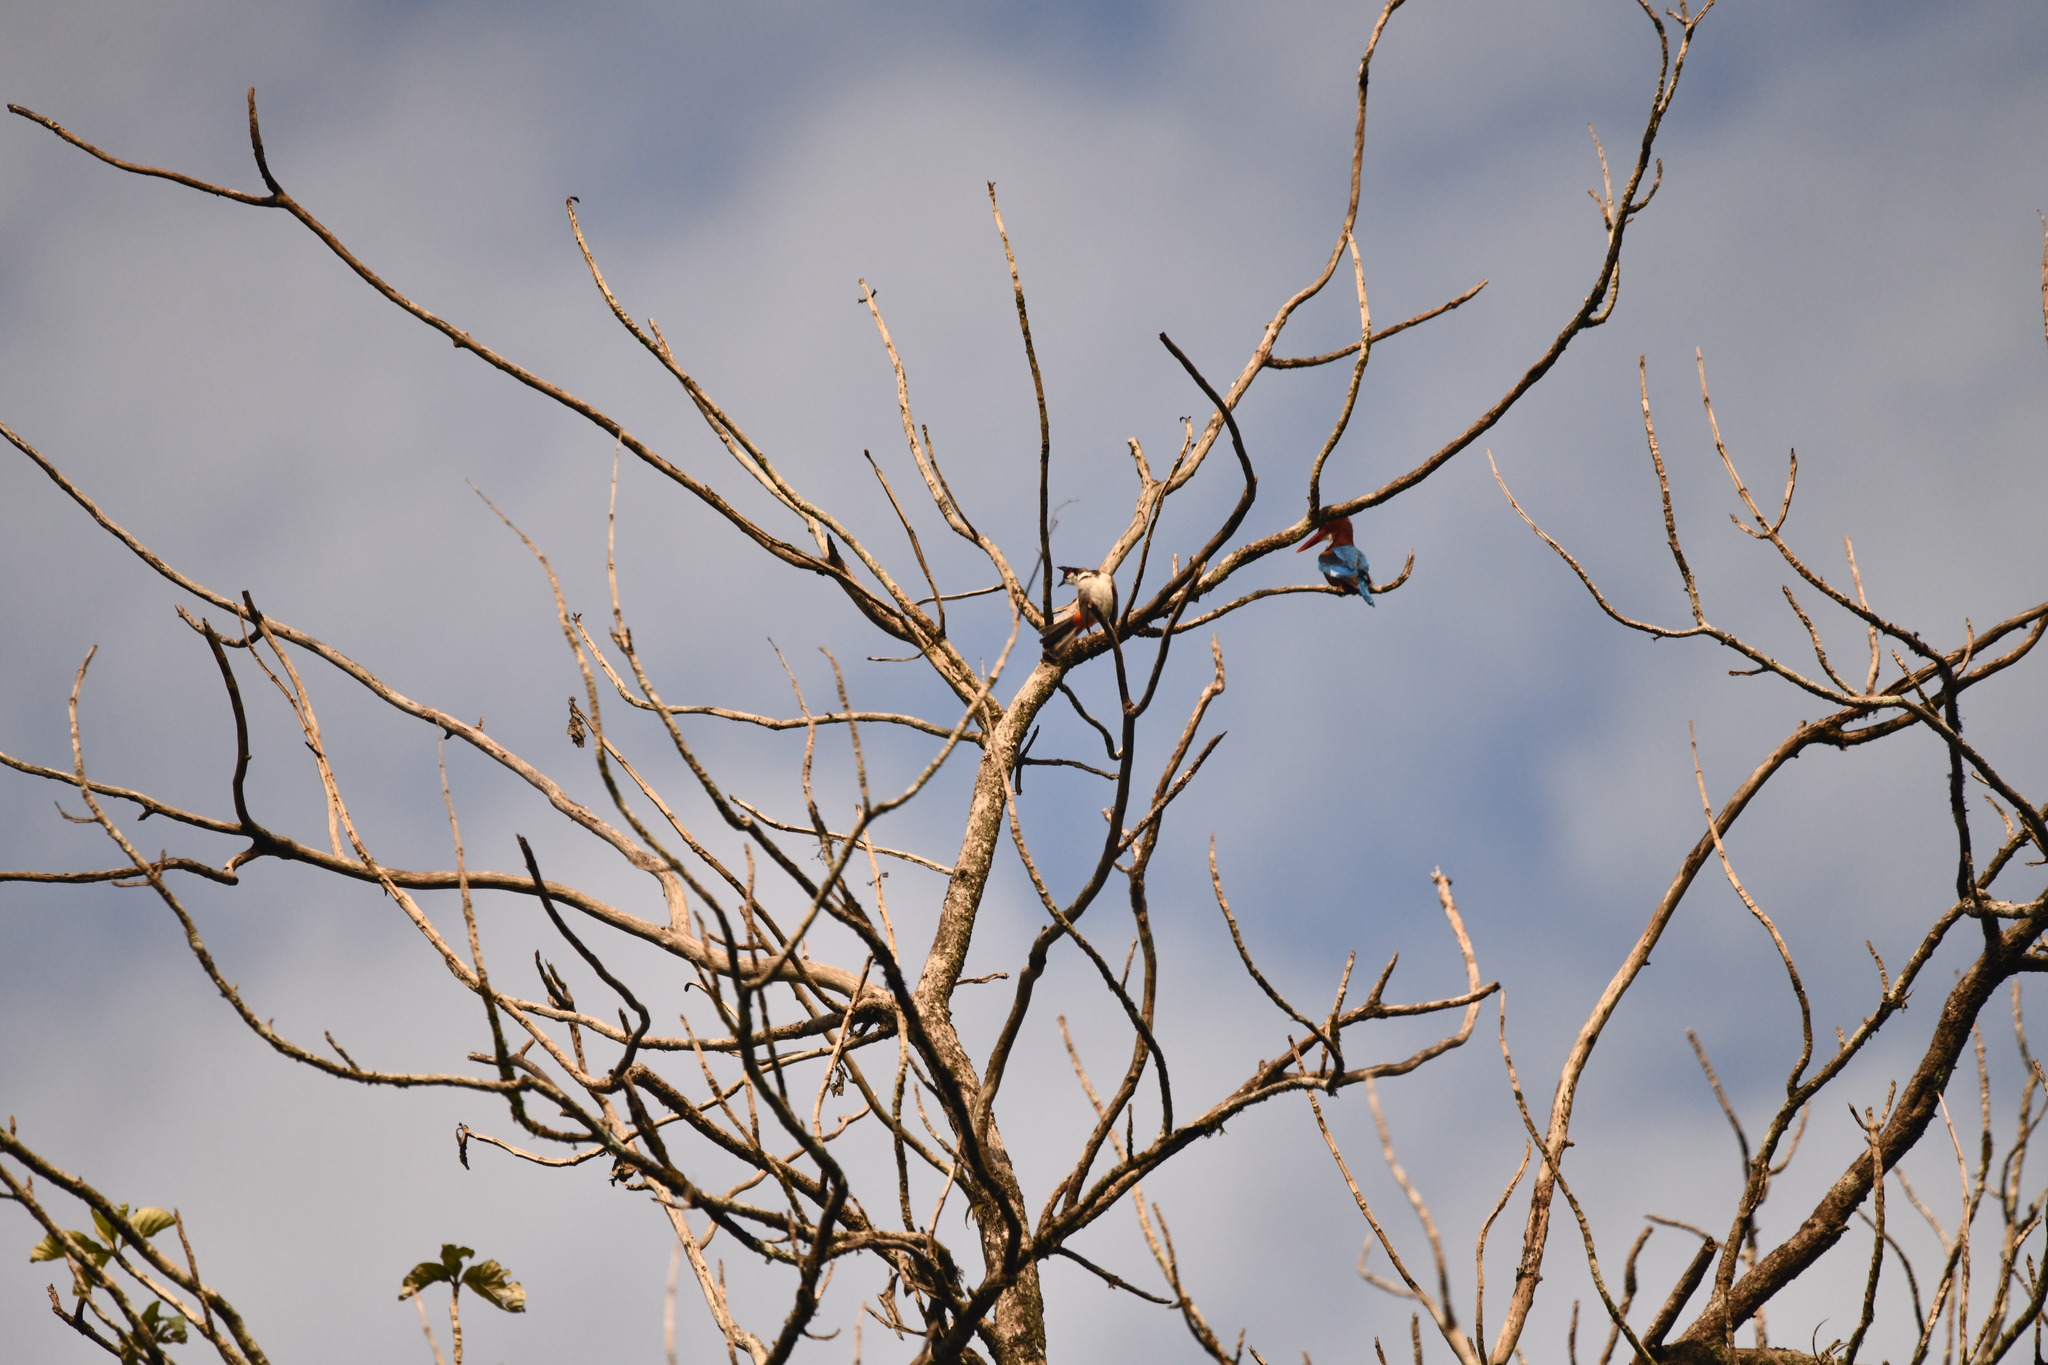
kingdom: Animalia
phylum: Chordata
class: Aves
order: Coraciiformes
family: Alcedinidae
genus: Halcyon
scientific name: Halcyon smyrnensis
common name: White-throated kingfisher
